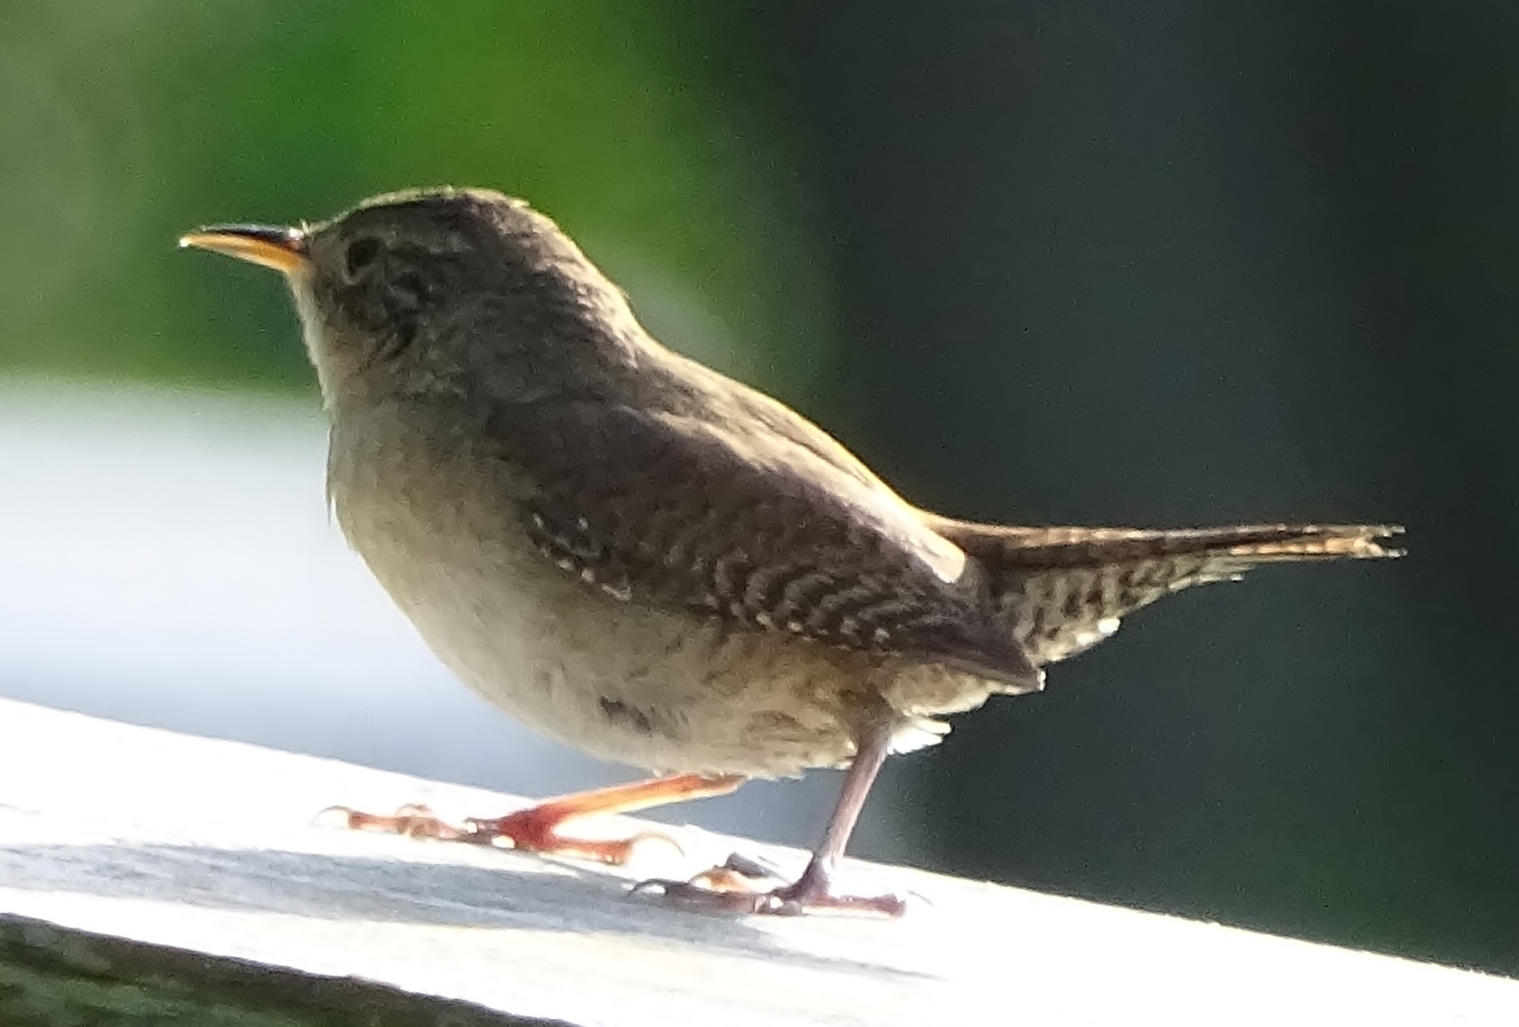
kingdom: Animalia
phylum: Chordata
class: Aves
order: Passeriformes
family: Troglodytidae
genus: Troglodytes
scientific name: Troglodytes aedon
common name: House wren
